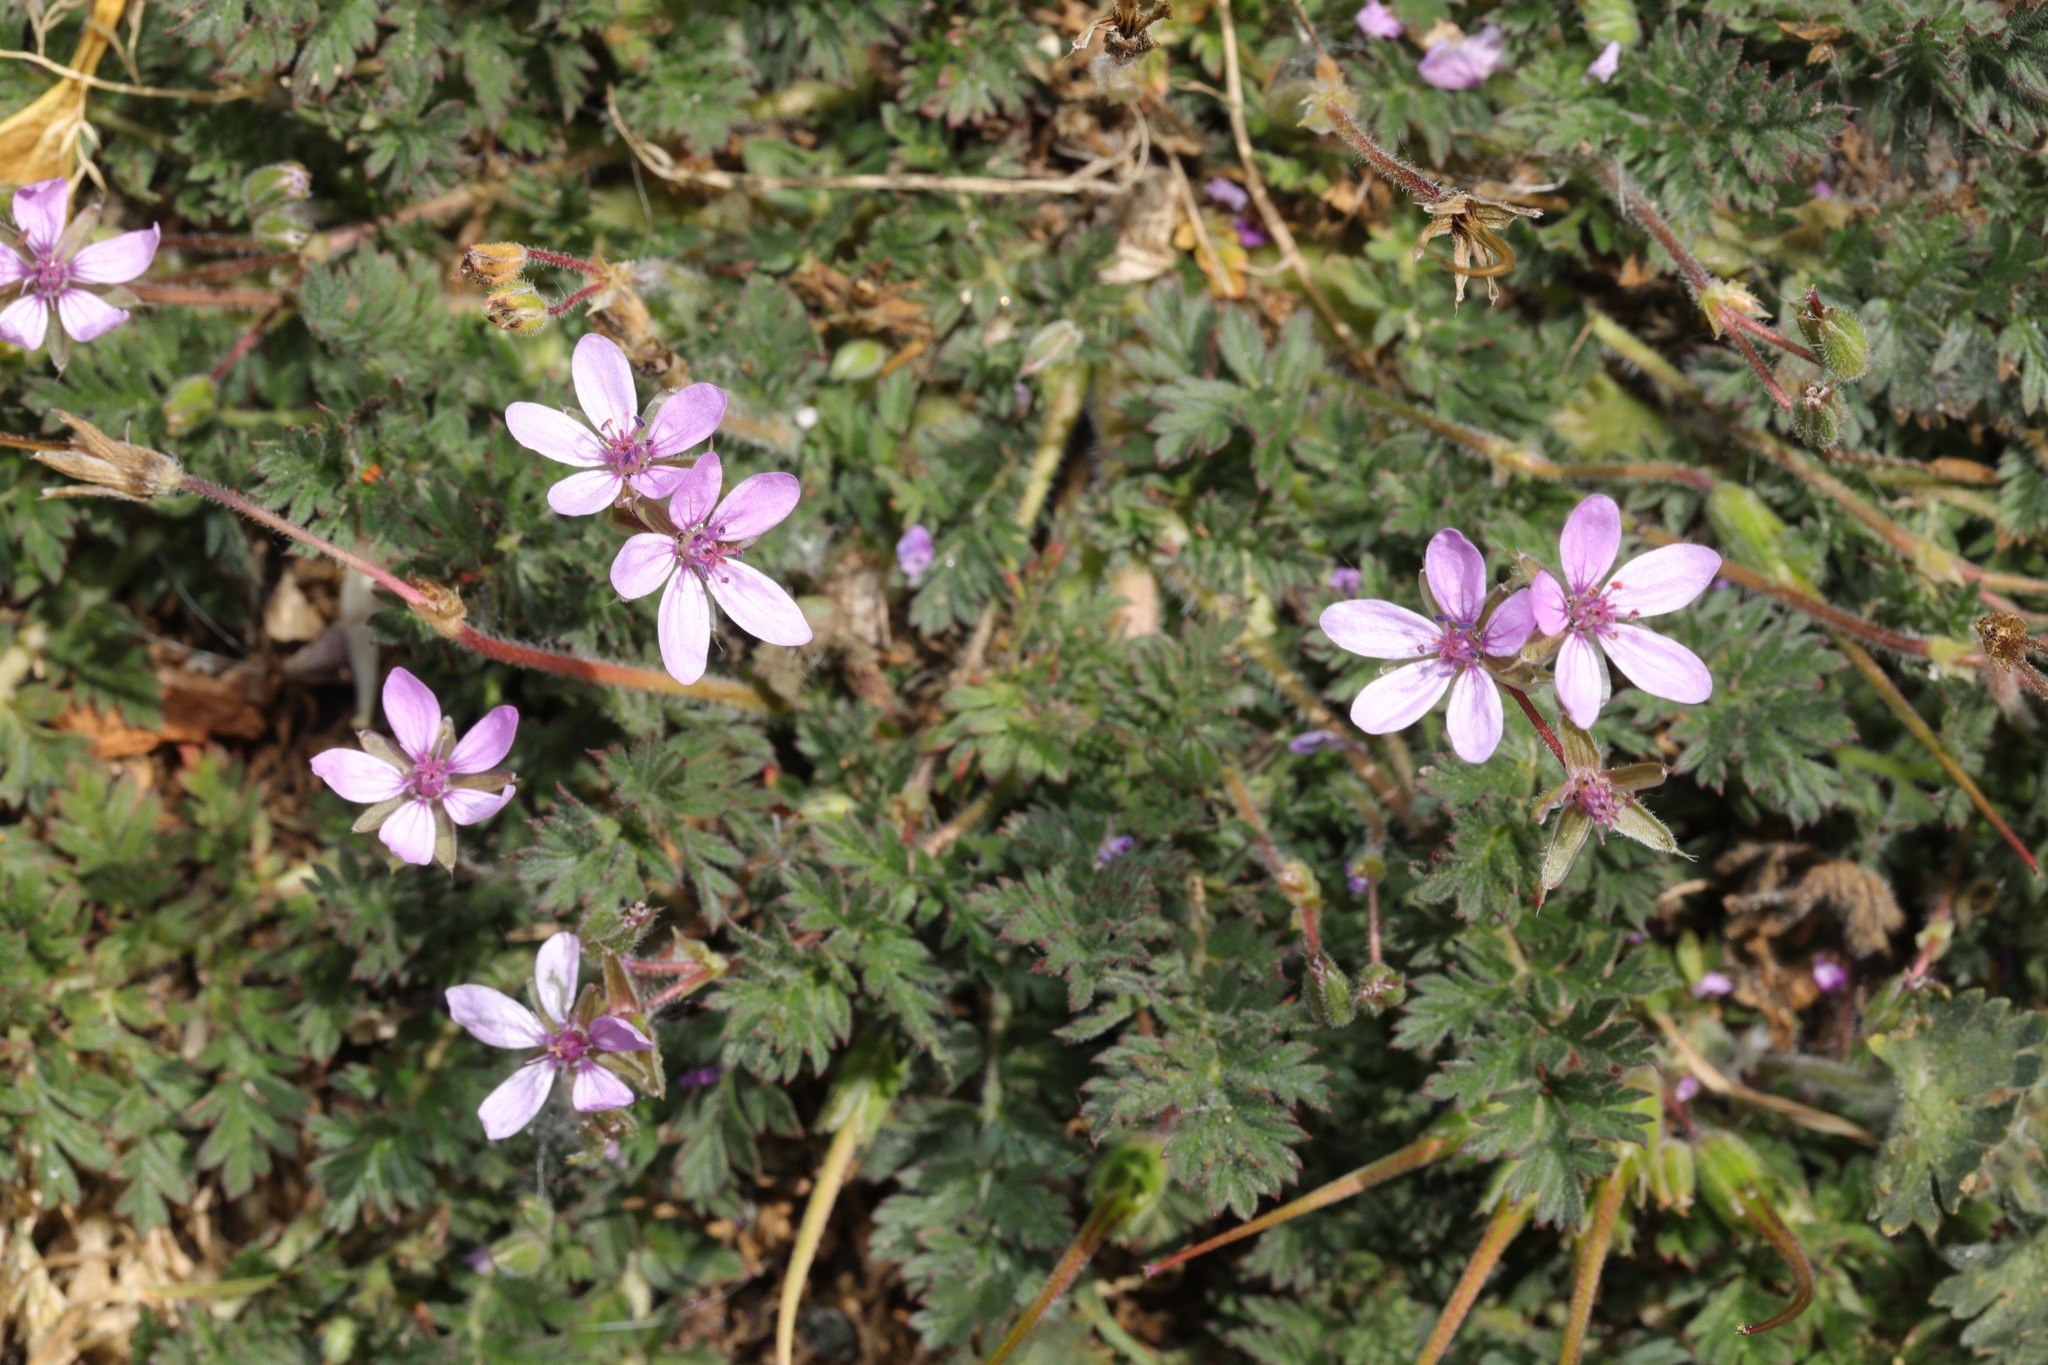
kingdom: Plantae
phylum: Tracheophyta
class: Magnoliopsida
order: Geraniales
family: Geraniaceae
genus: Erodium
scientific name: Erodium cicutarium
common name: Common stork's-bill
